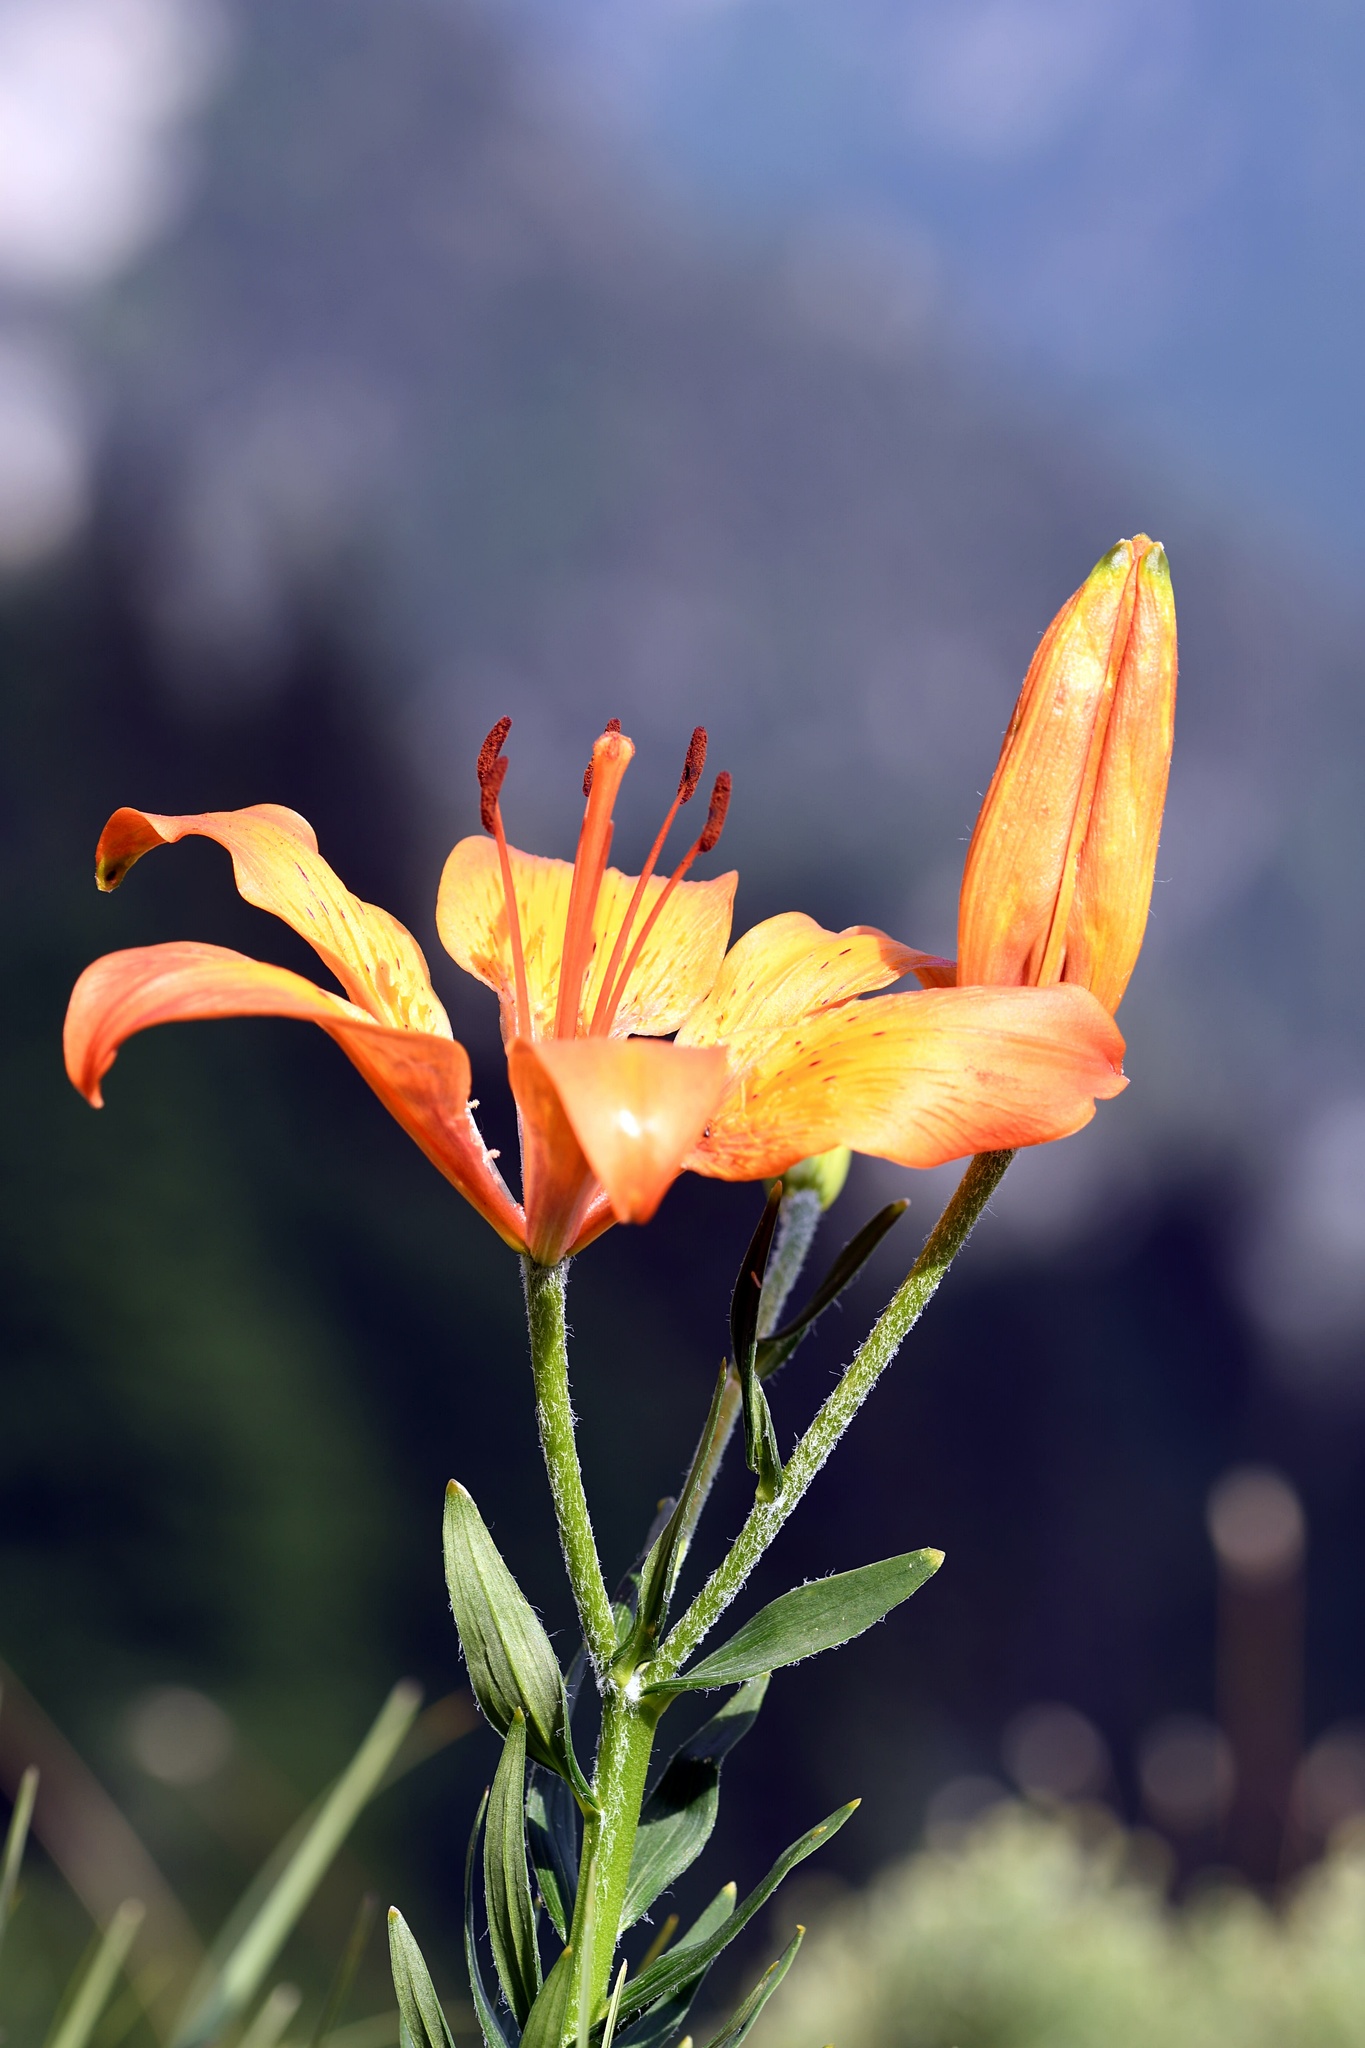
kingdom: Plantae
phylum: Tracheophyta
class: Liliopsida
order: Liliales
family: Liliaceae
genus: Lilium
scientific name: Lilium bulbiferum
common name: Orange lily
